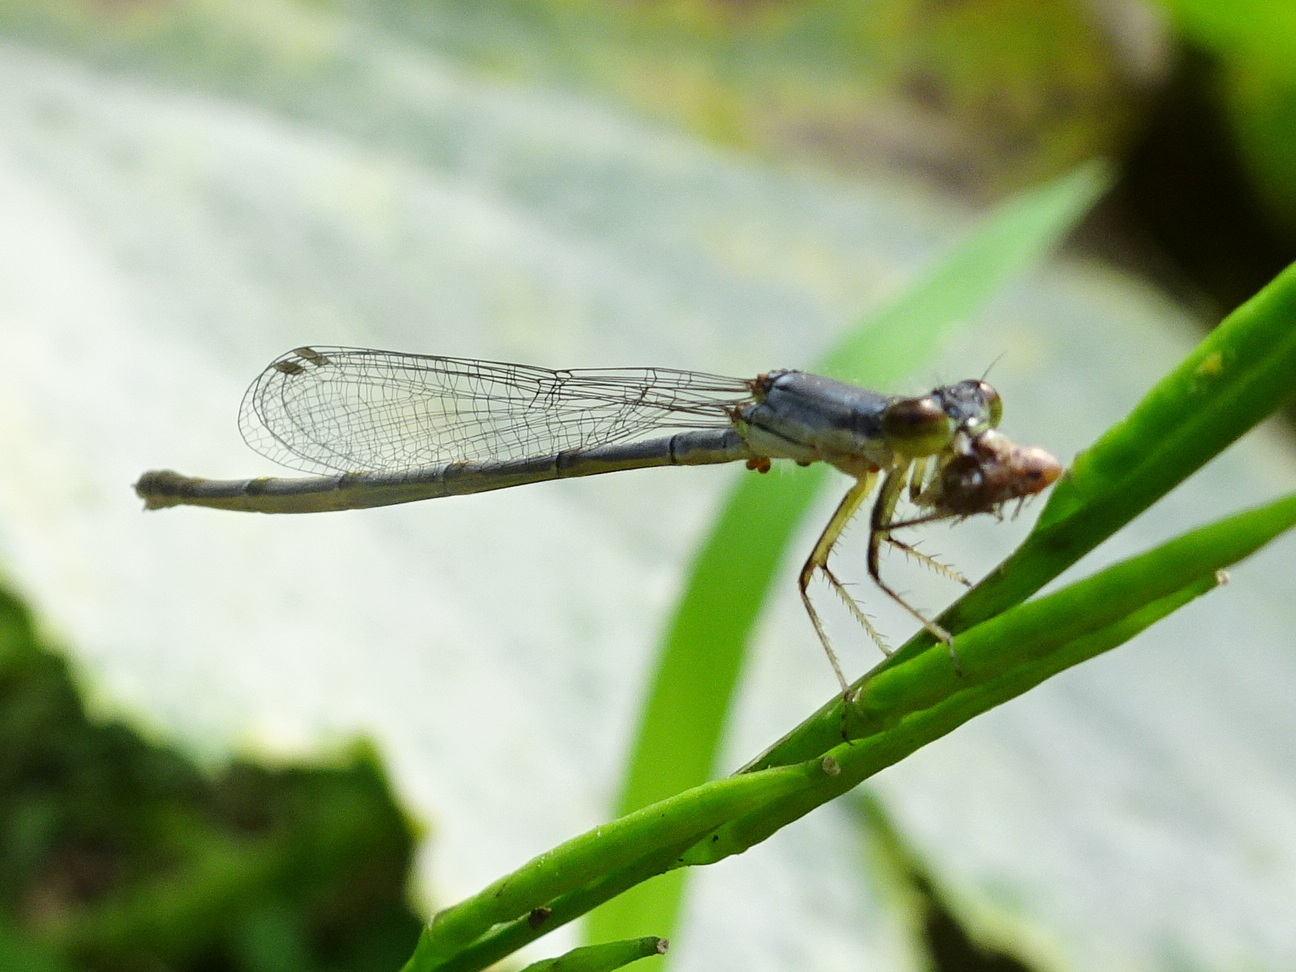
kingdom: Animalia
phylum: Arthropoda
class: Insecta
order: Odonata
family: Coenagrionidae
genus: Ischnura
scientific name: Ischnura posita
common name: Fragile forktail
